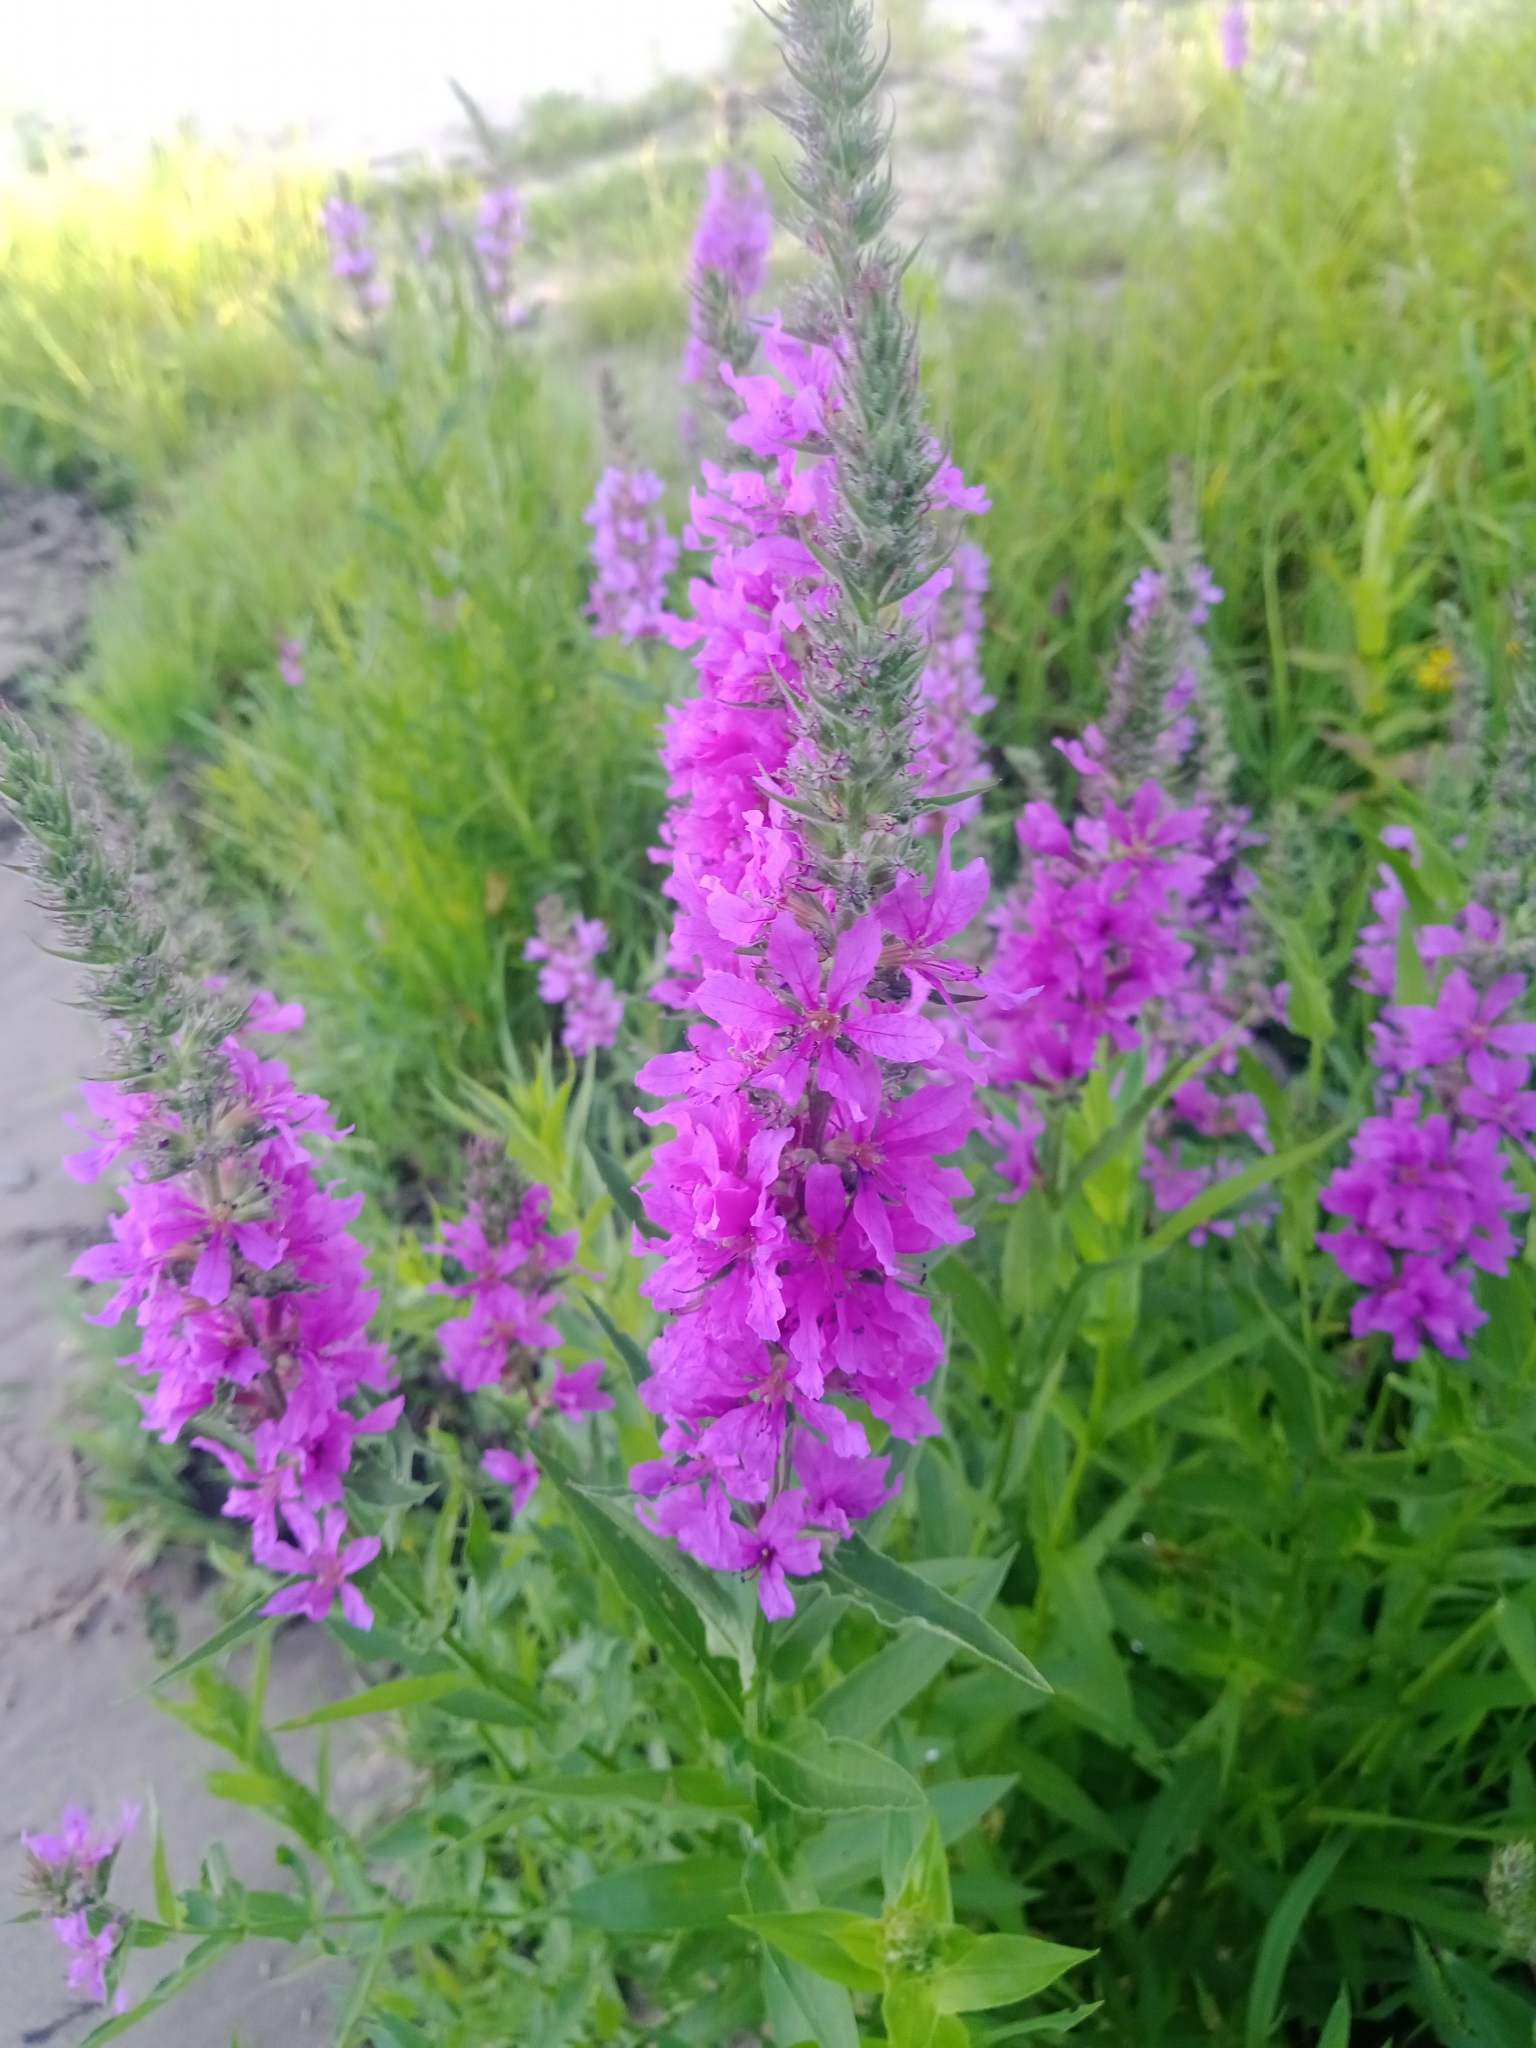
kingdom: Plantae
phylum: Tracheophyta
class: Magnoliopsida
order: Myrtales
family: Lythraceae
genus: Lythrum
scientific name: Lythrum salicaria
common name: Purple loosestrife
